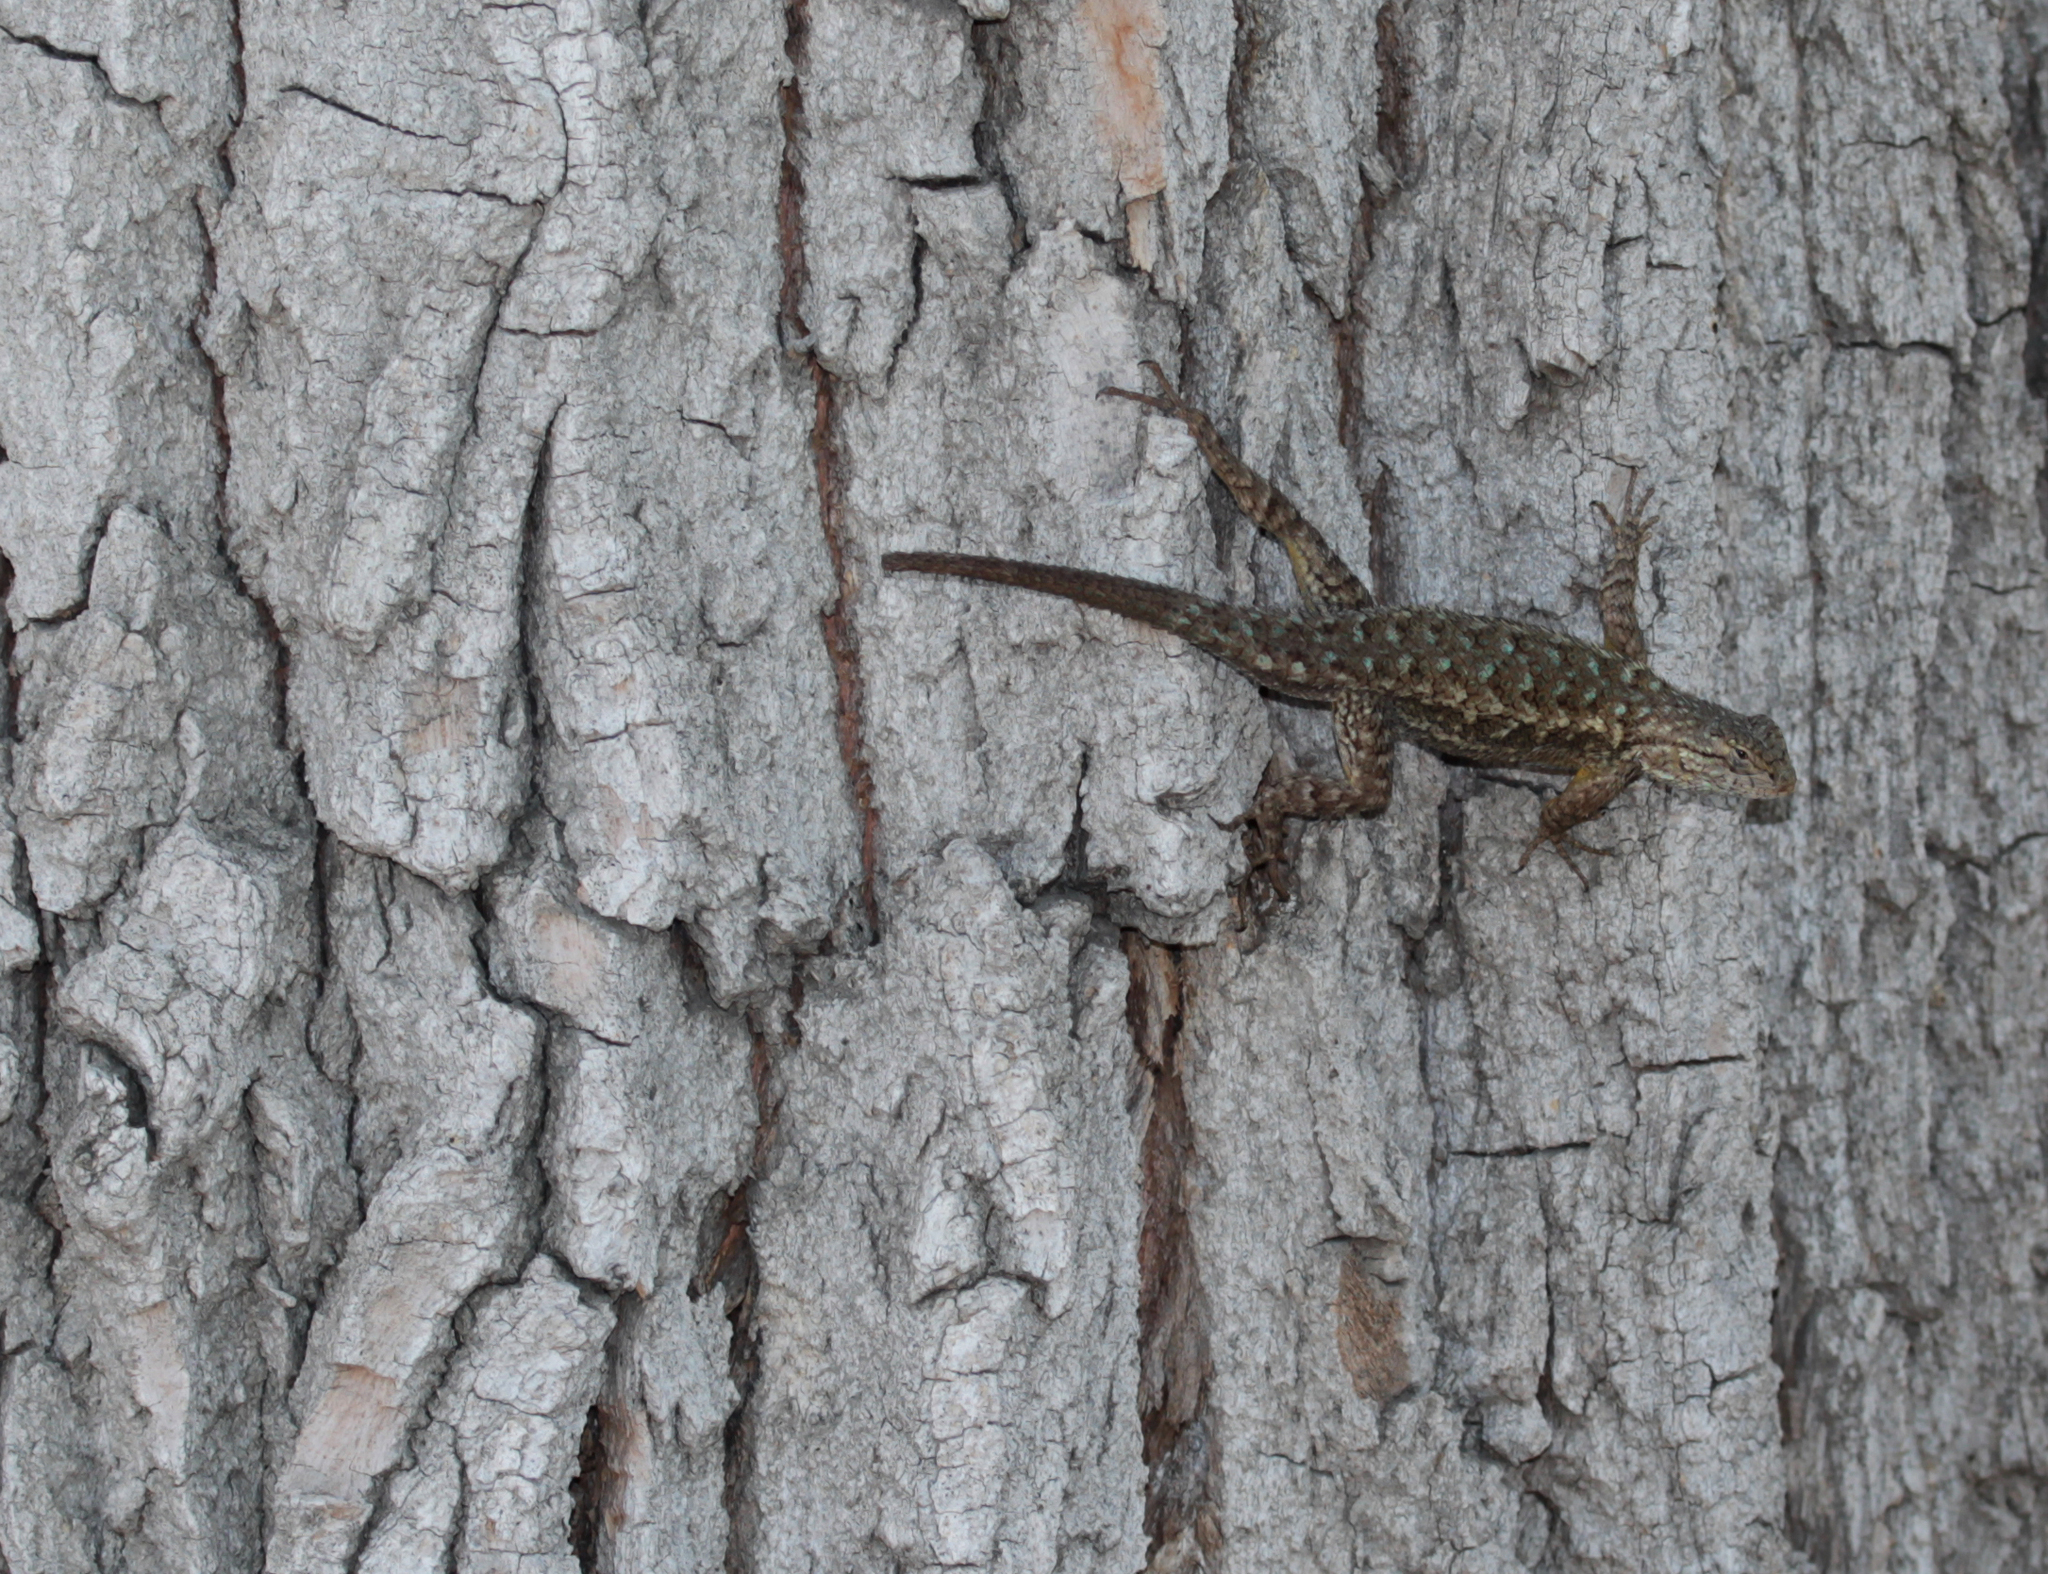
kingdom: Animalia
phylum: Chordata
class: Squamata
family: Phrynosomatidae
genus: Sceloporus
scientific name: Sceloporus occidentalis
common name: Western fence lizard
